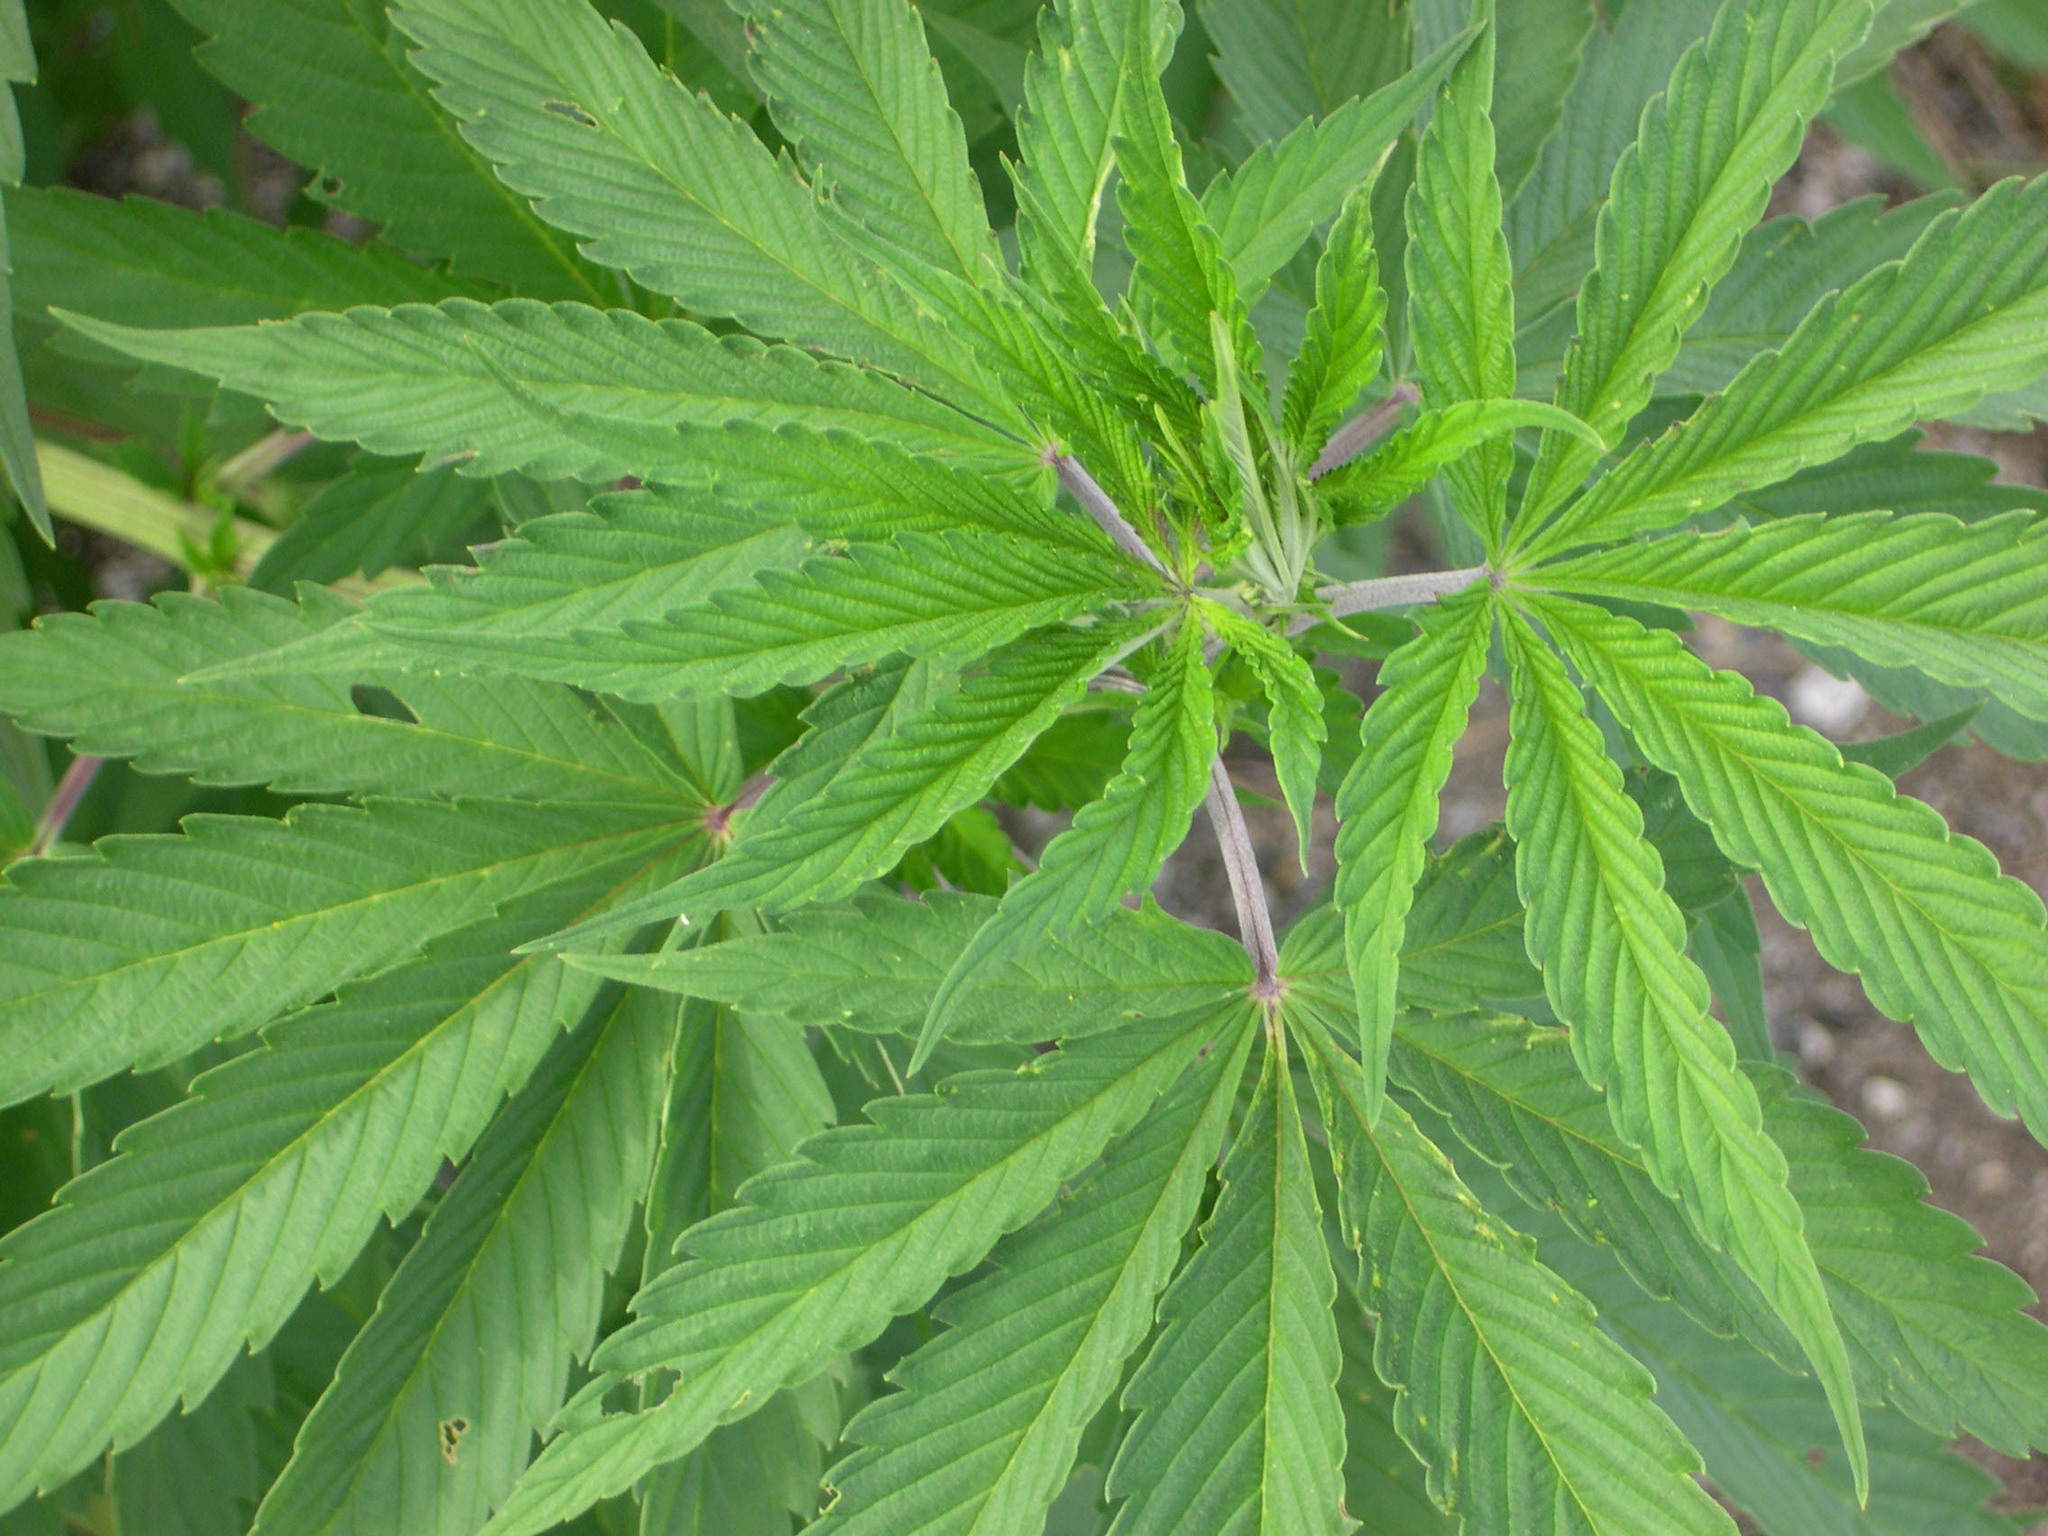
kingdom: Plantae
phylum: Tracheophyta
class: Magnoliopsida
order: Rosales
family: Cannabaceae
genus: Cannabis
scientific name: Cannabis sativa
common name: Hemp
